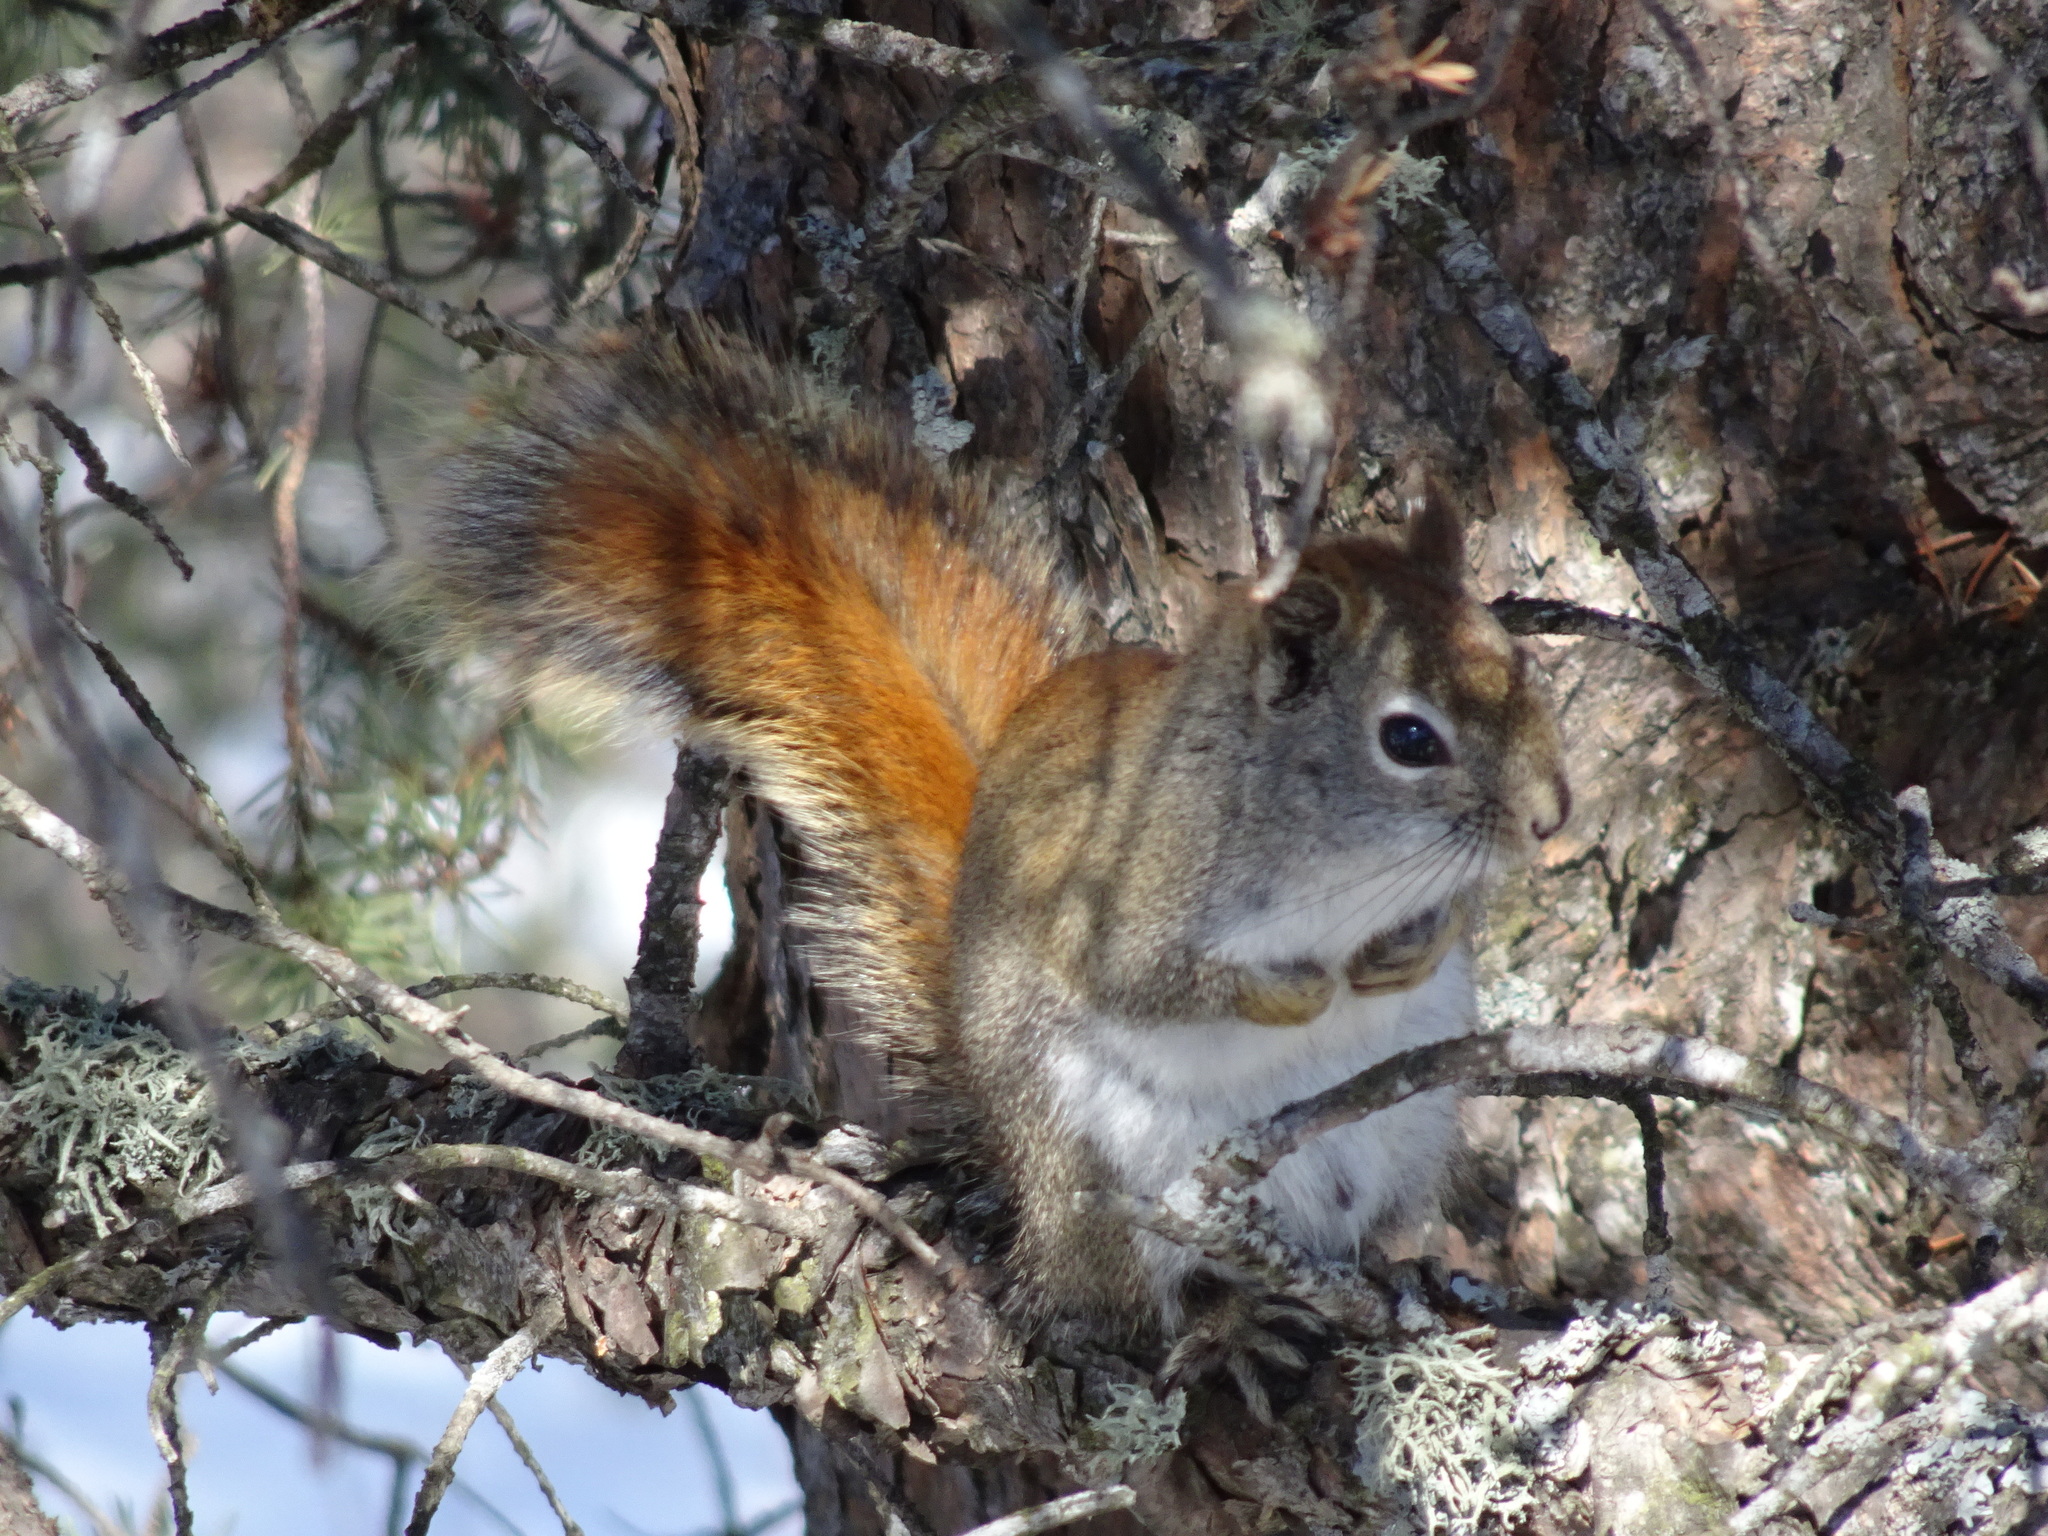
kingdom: Animalia
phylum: Chordata
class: Mammalia
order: Rodentia
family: Sciuridae
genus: Tamiasciurus
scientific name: Tamiasciurus hudsonicus
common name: Red squirrel
